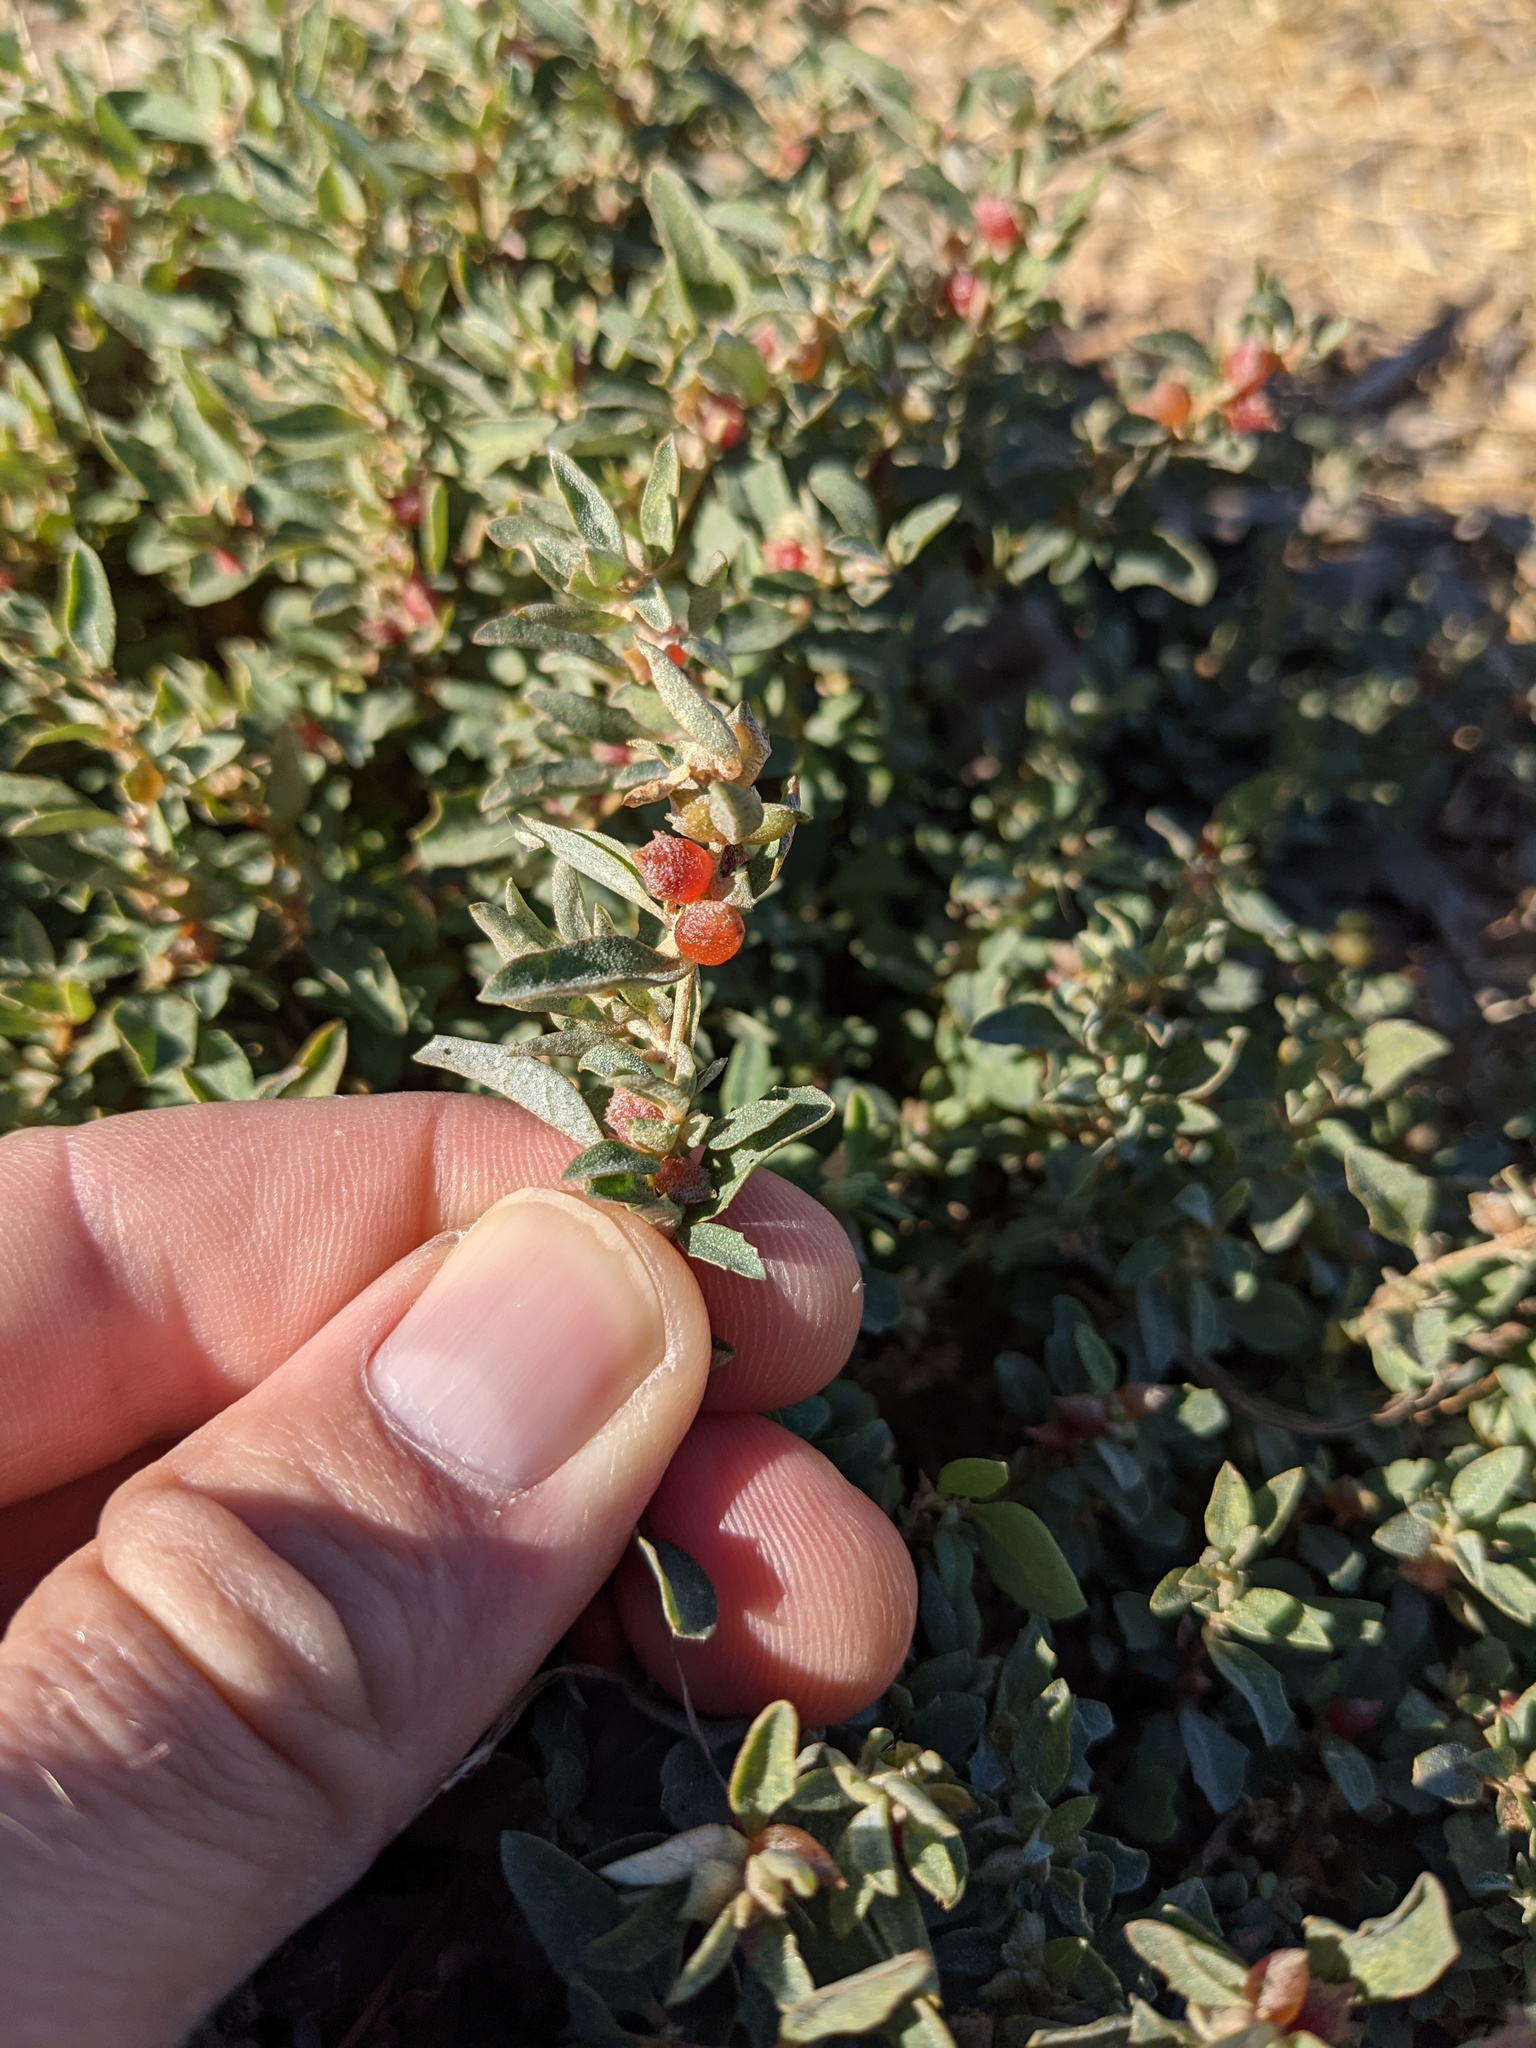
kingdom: Plantae
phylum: Tracheophyta
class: Magnoliopsida
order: Caryophyllales
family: Amaranthaceae
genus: Atriplex
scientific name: Atriplex semibaccata
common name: Australian saltbush
